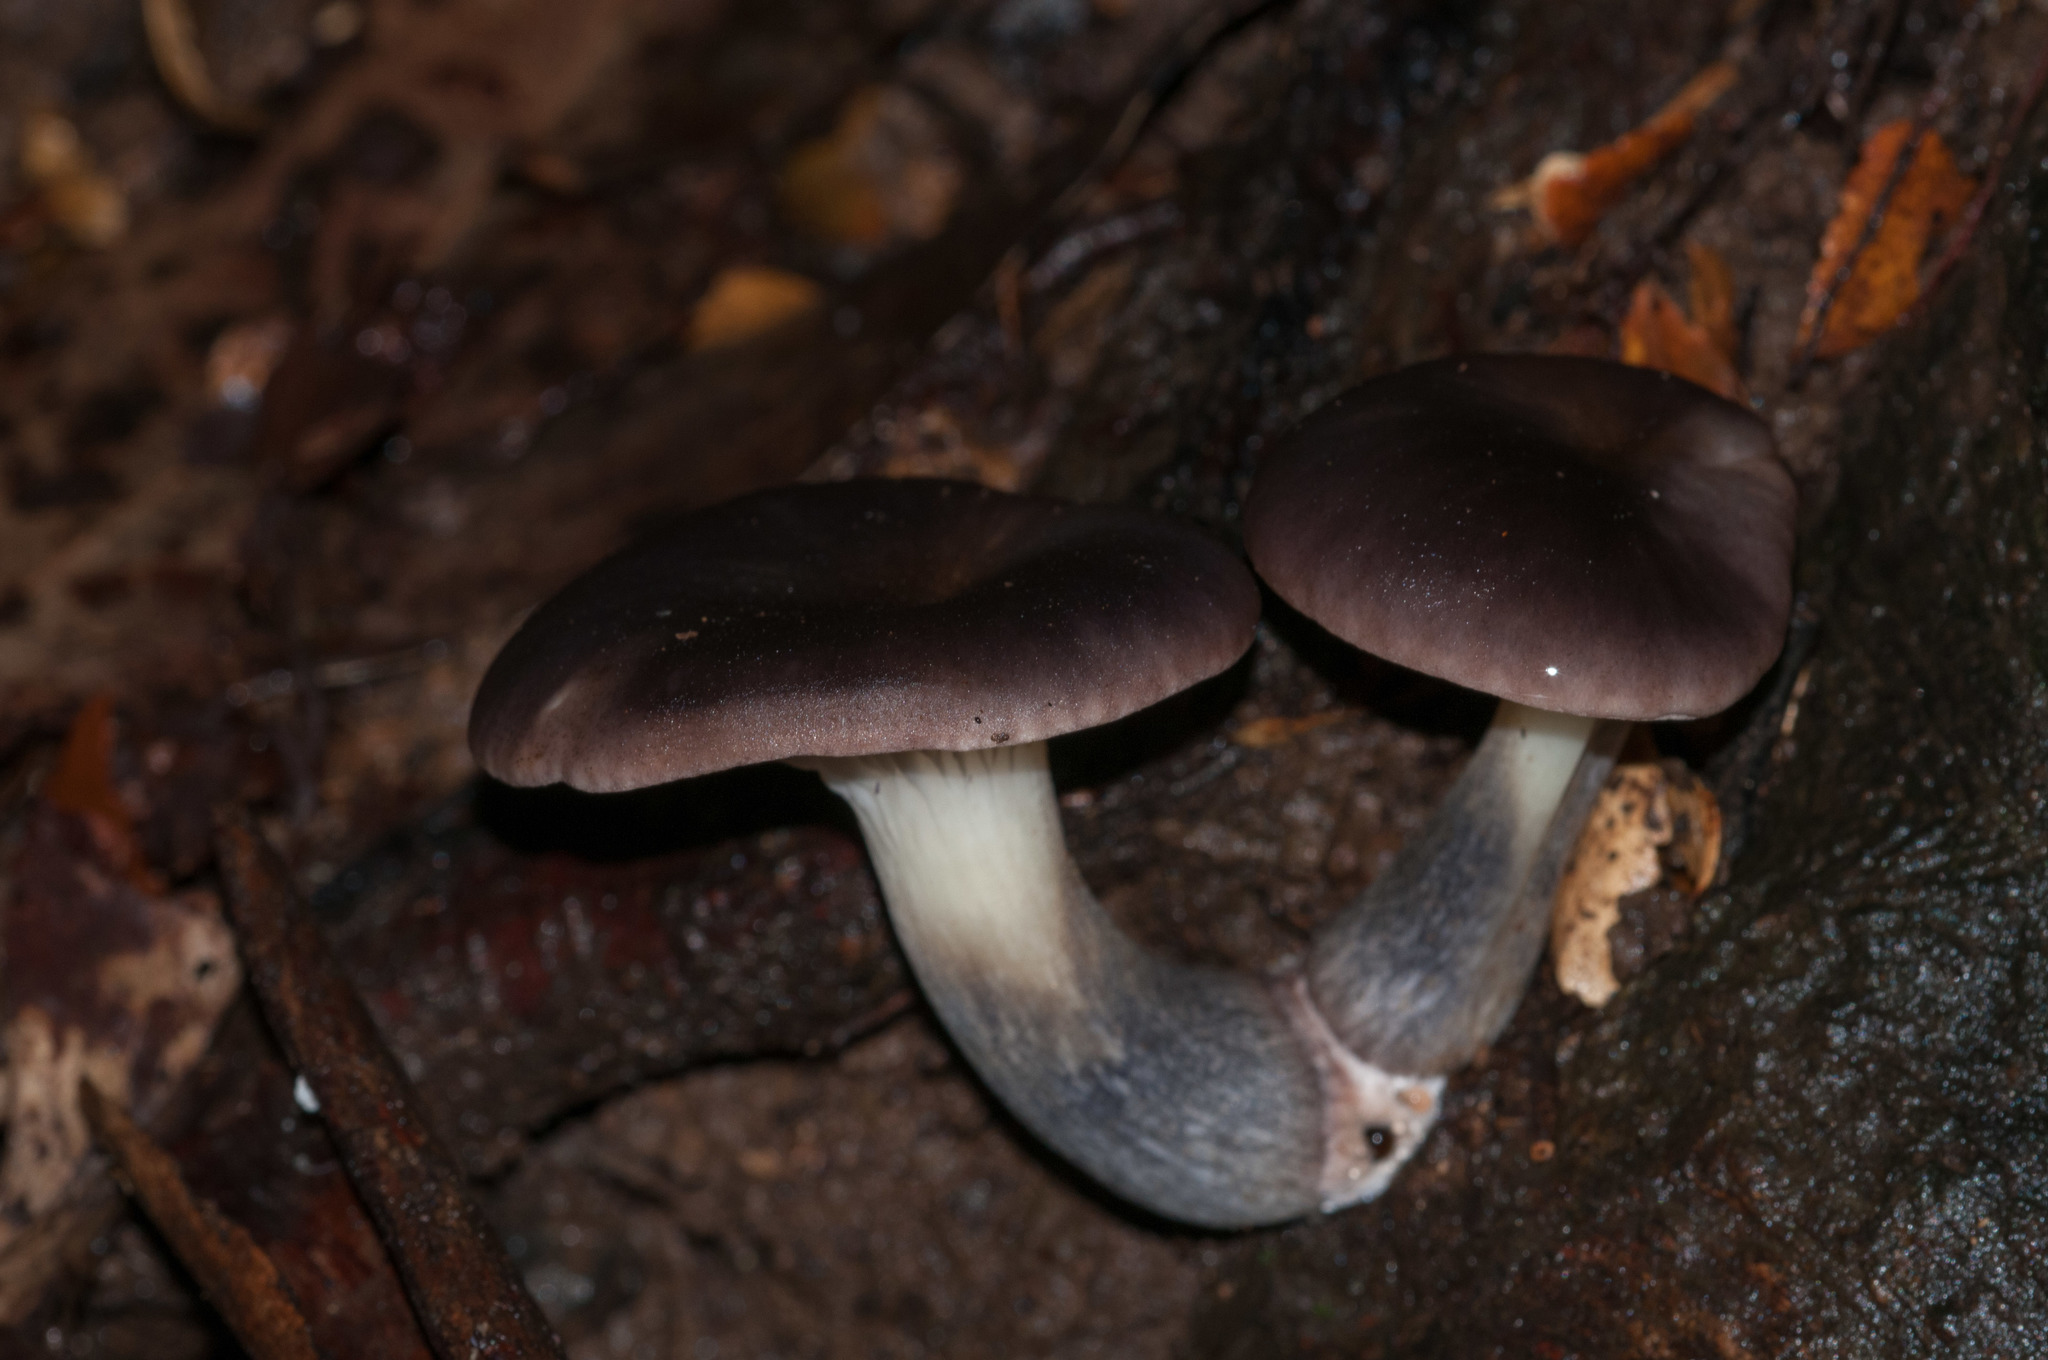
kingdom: Fungi
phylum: Basidiomycota
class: Agaricomycetes
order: Agaricales
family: Omphalotaceae
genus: Omphalotus
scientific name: Omphalotus nidiformis
